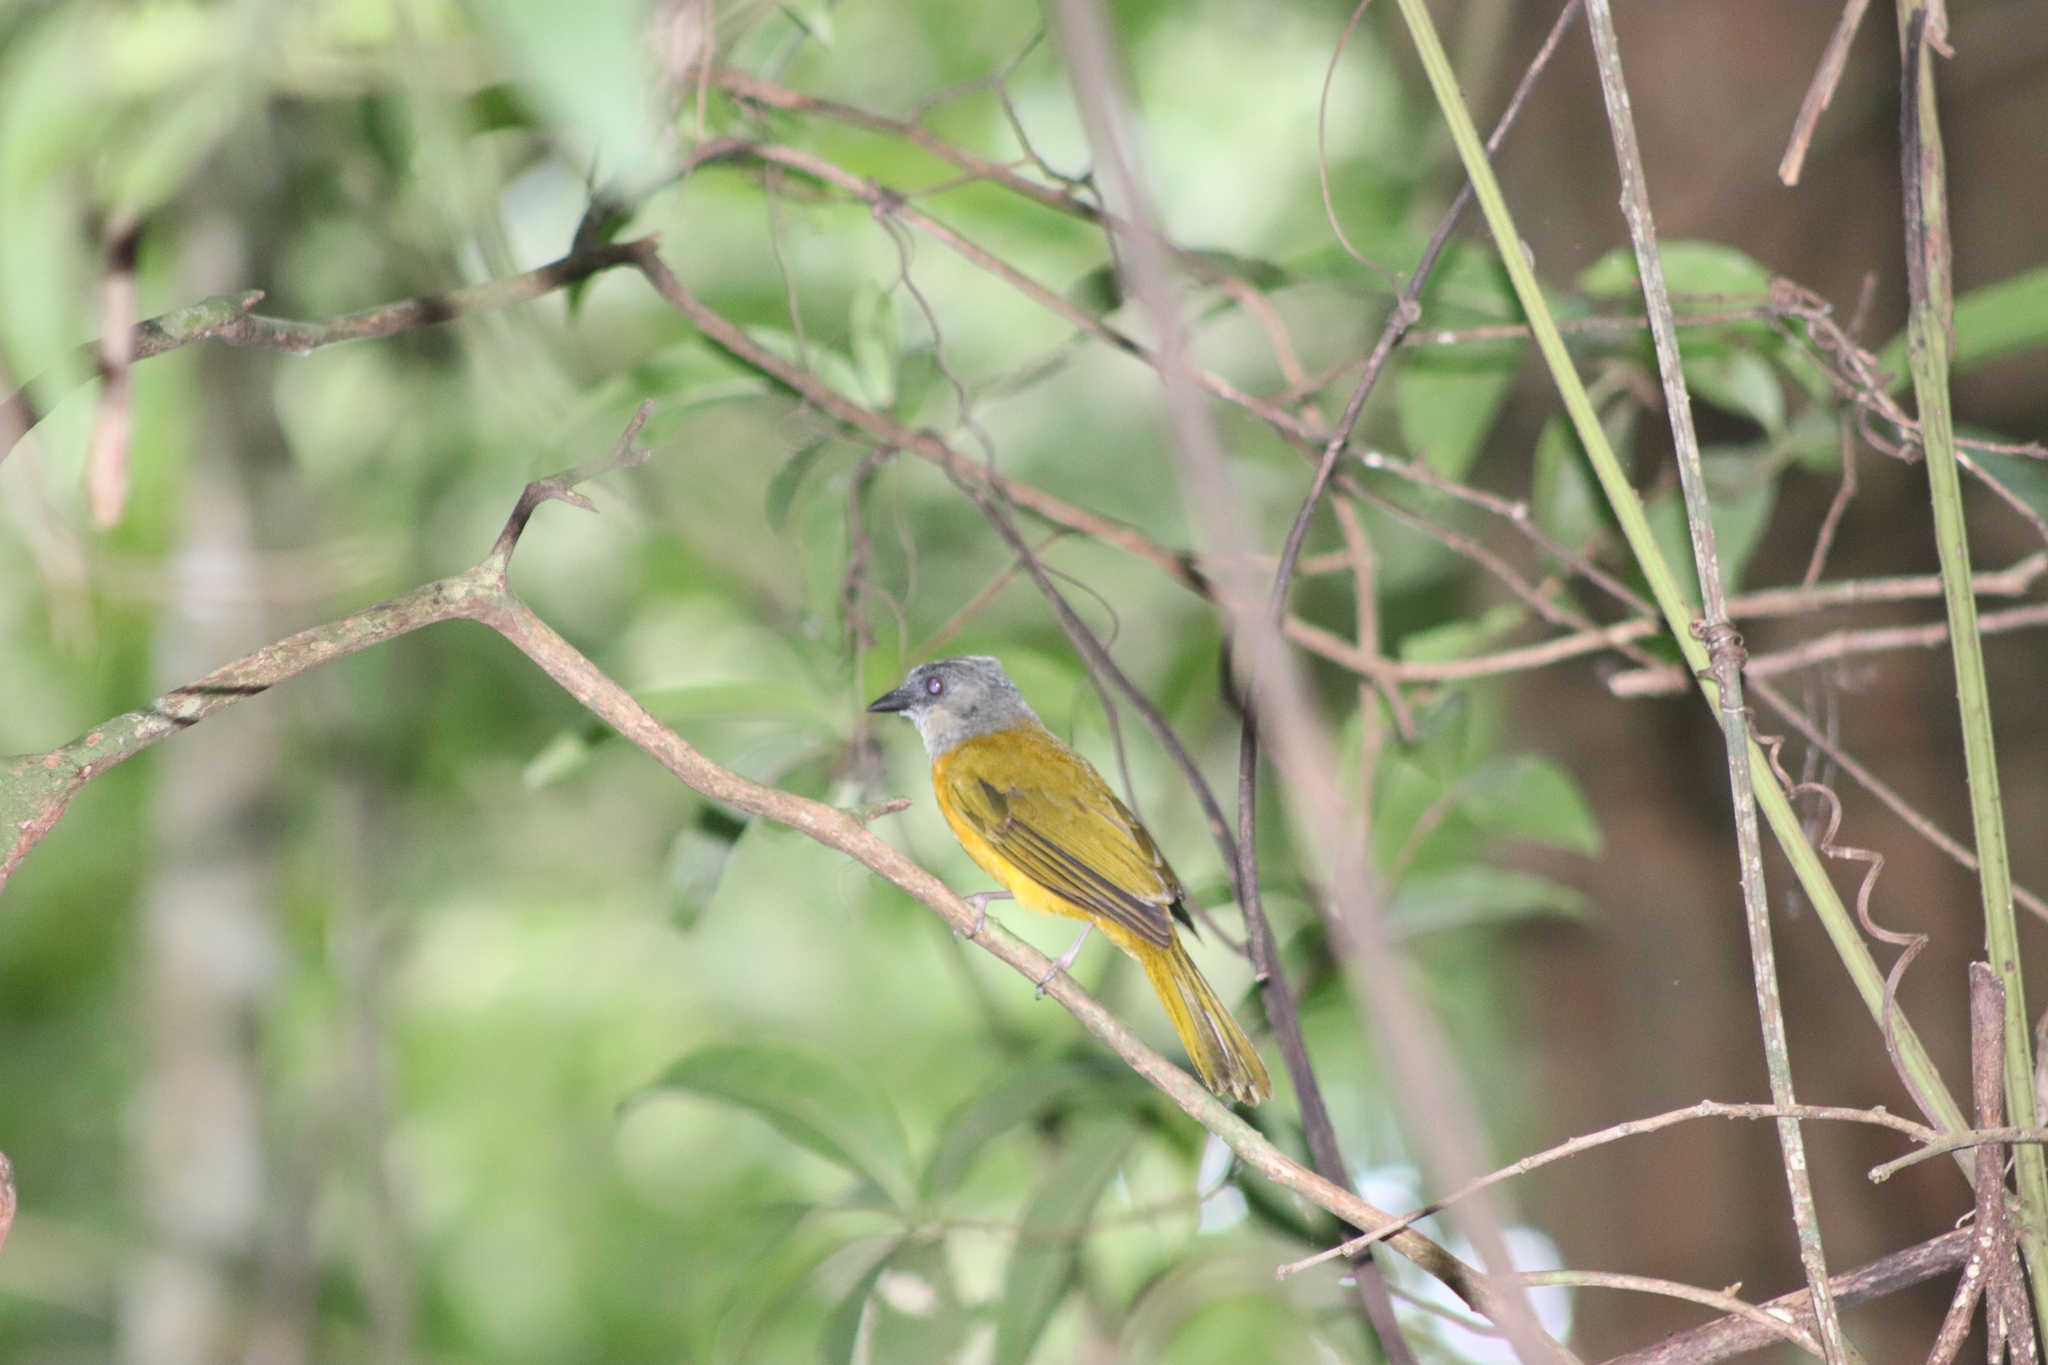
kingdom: Animalia
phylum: Chordata
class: Aves
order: Passeriformes
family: Thraupidae
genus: Eucometis
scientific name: Eucometis penicillata
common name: Grey-headed tanager
